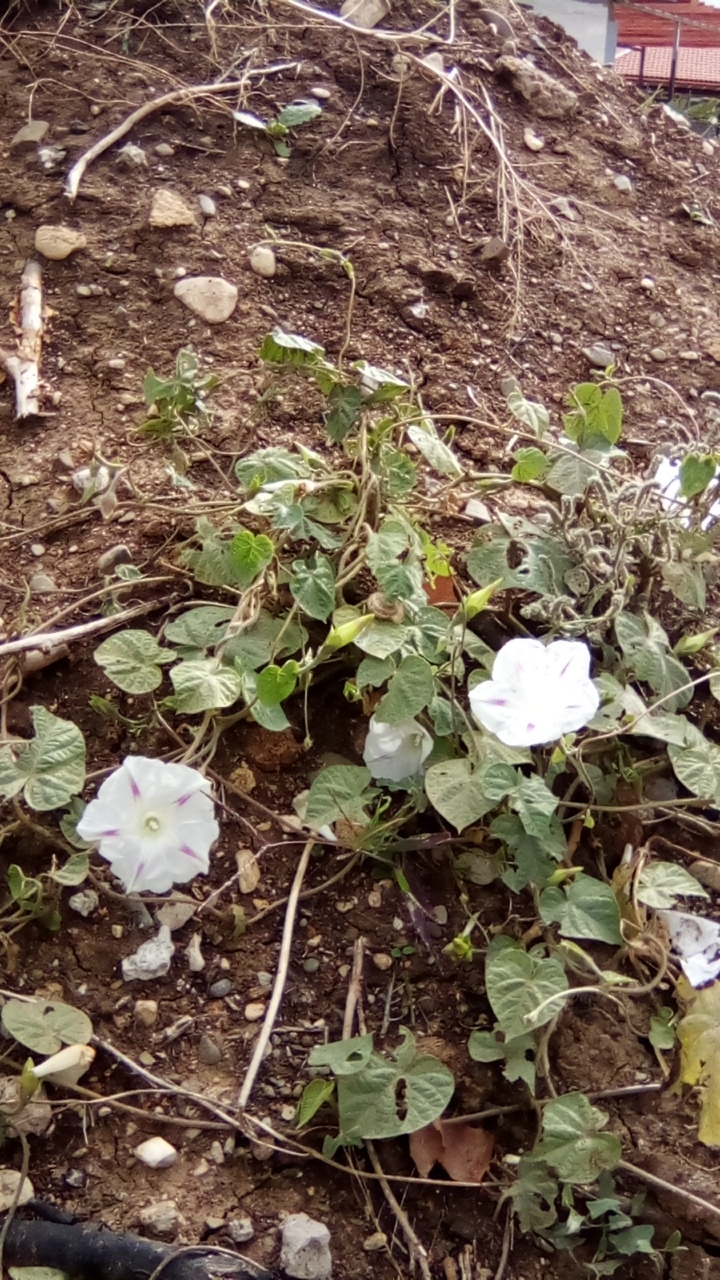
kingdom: Plantae
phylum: Tracheophyta
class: Magnoliopsida
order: Solanales
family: Convolvulaceae
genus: Ipomoea
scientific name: Ipomoea purpurea
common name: Common morning-glory
